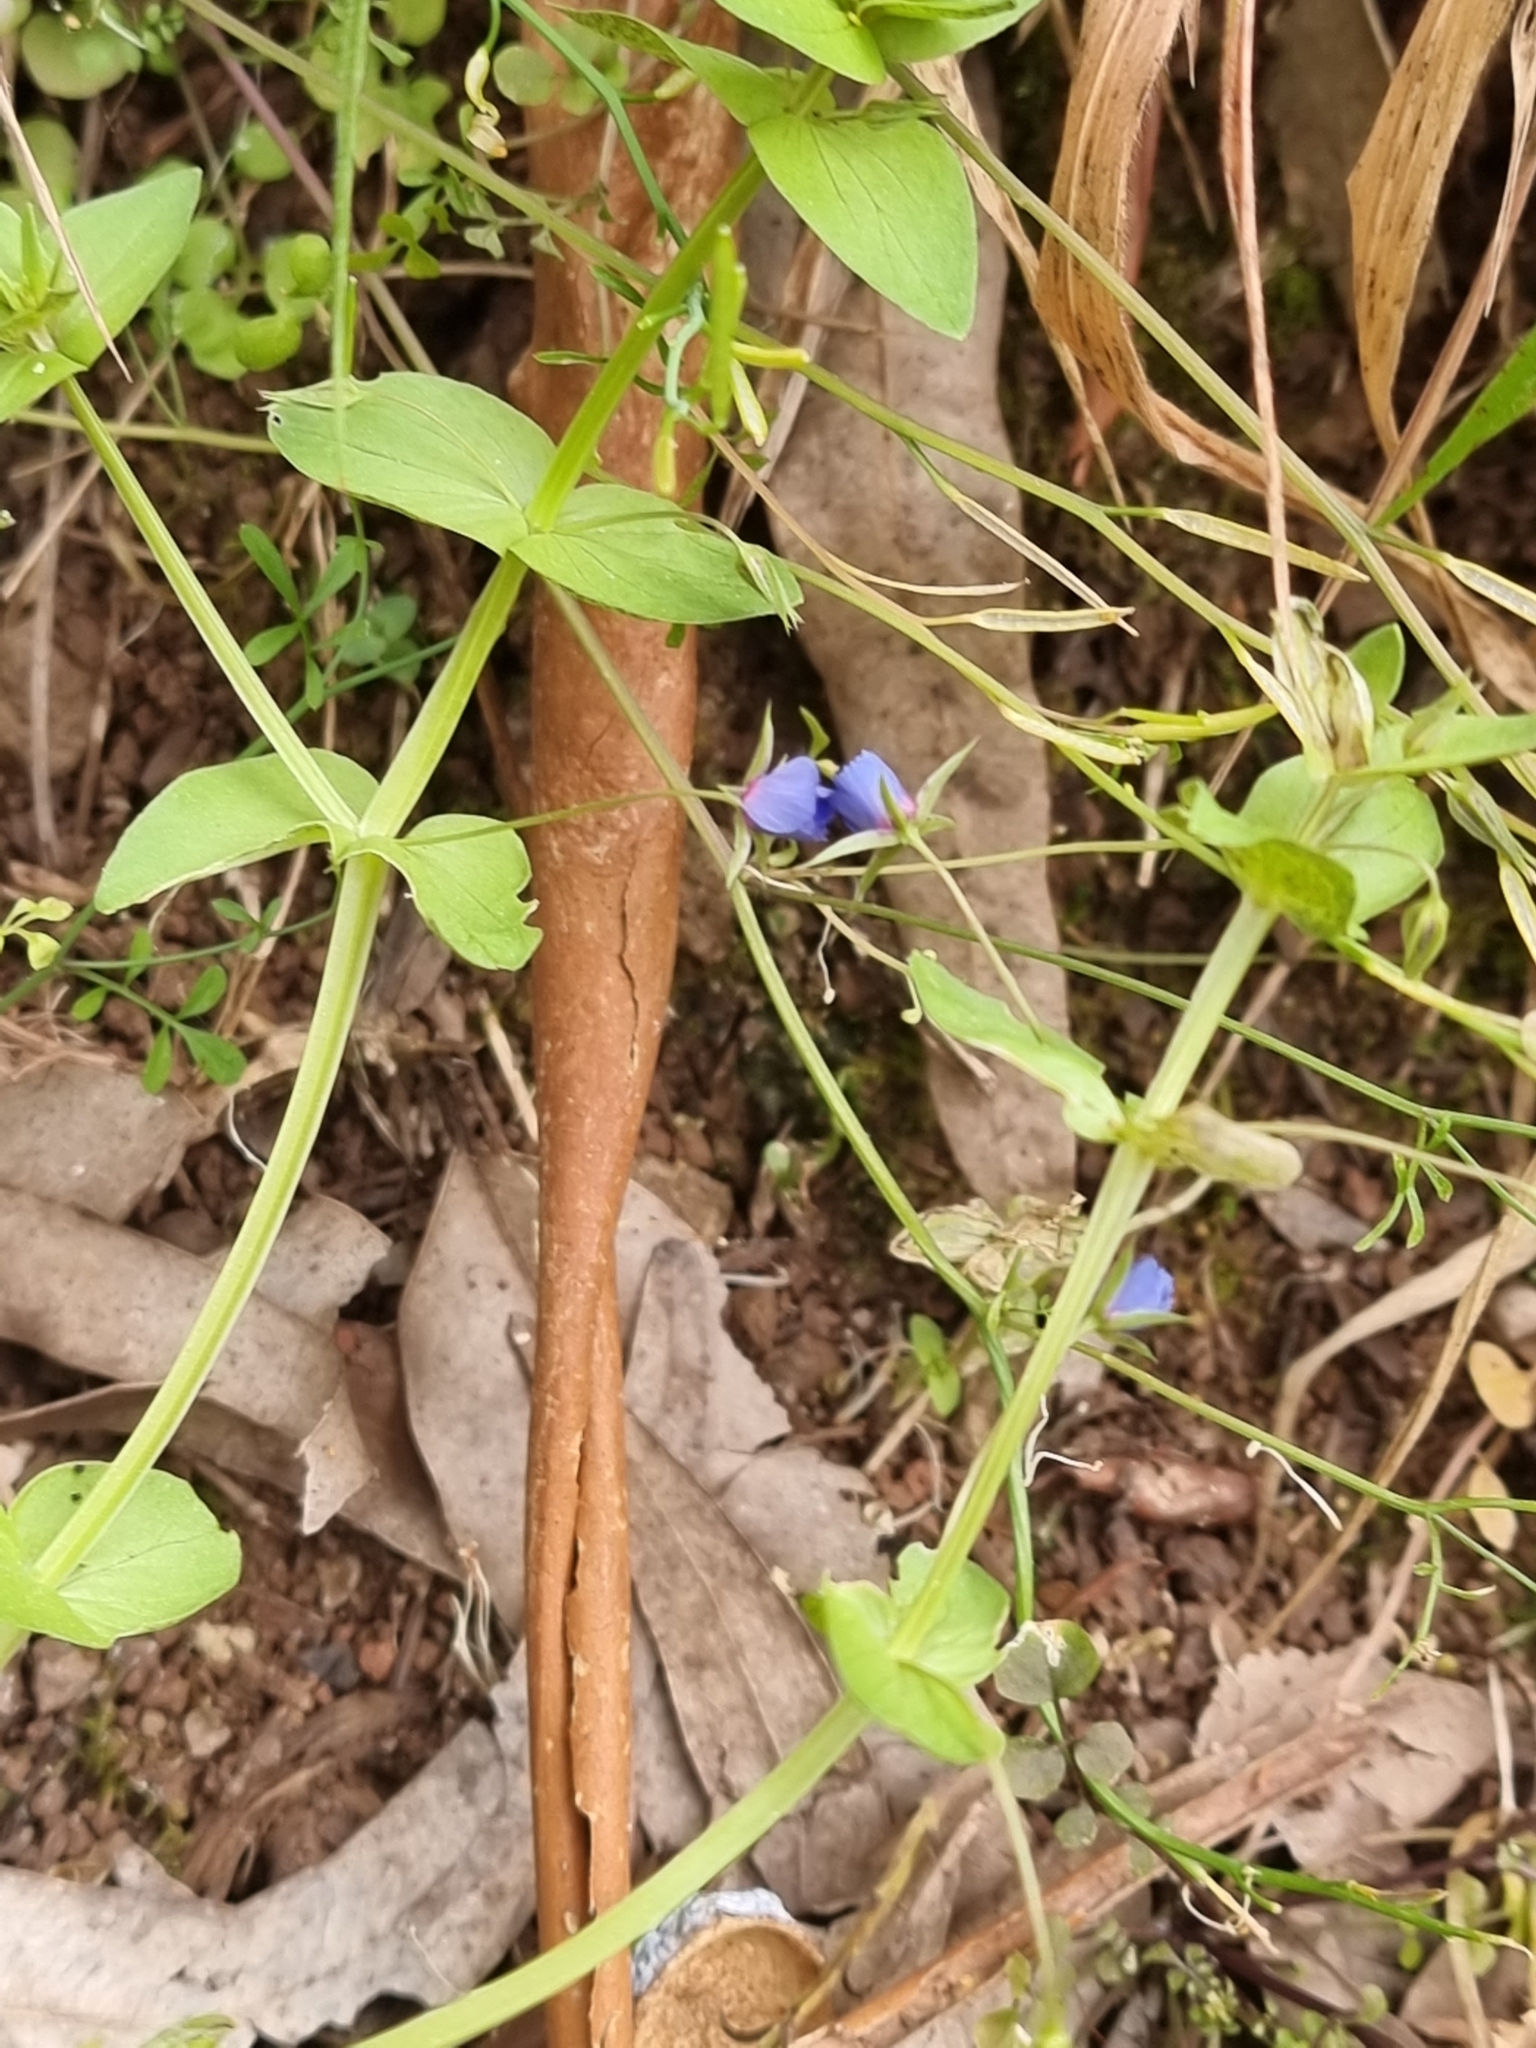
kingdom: Plantae
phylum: Tracheophyta
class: Magnoliopsida
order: Ericales
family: Primulaceae
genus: Lysimachia
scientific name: Lysimachia loeflingii
